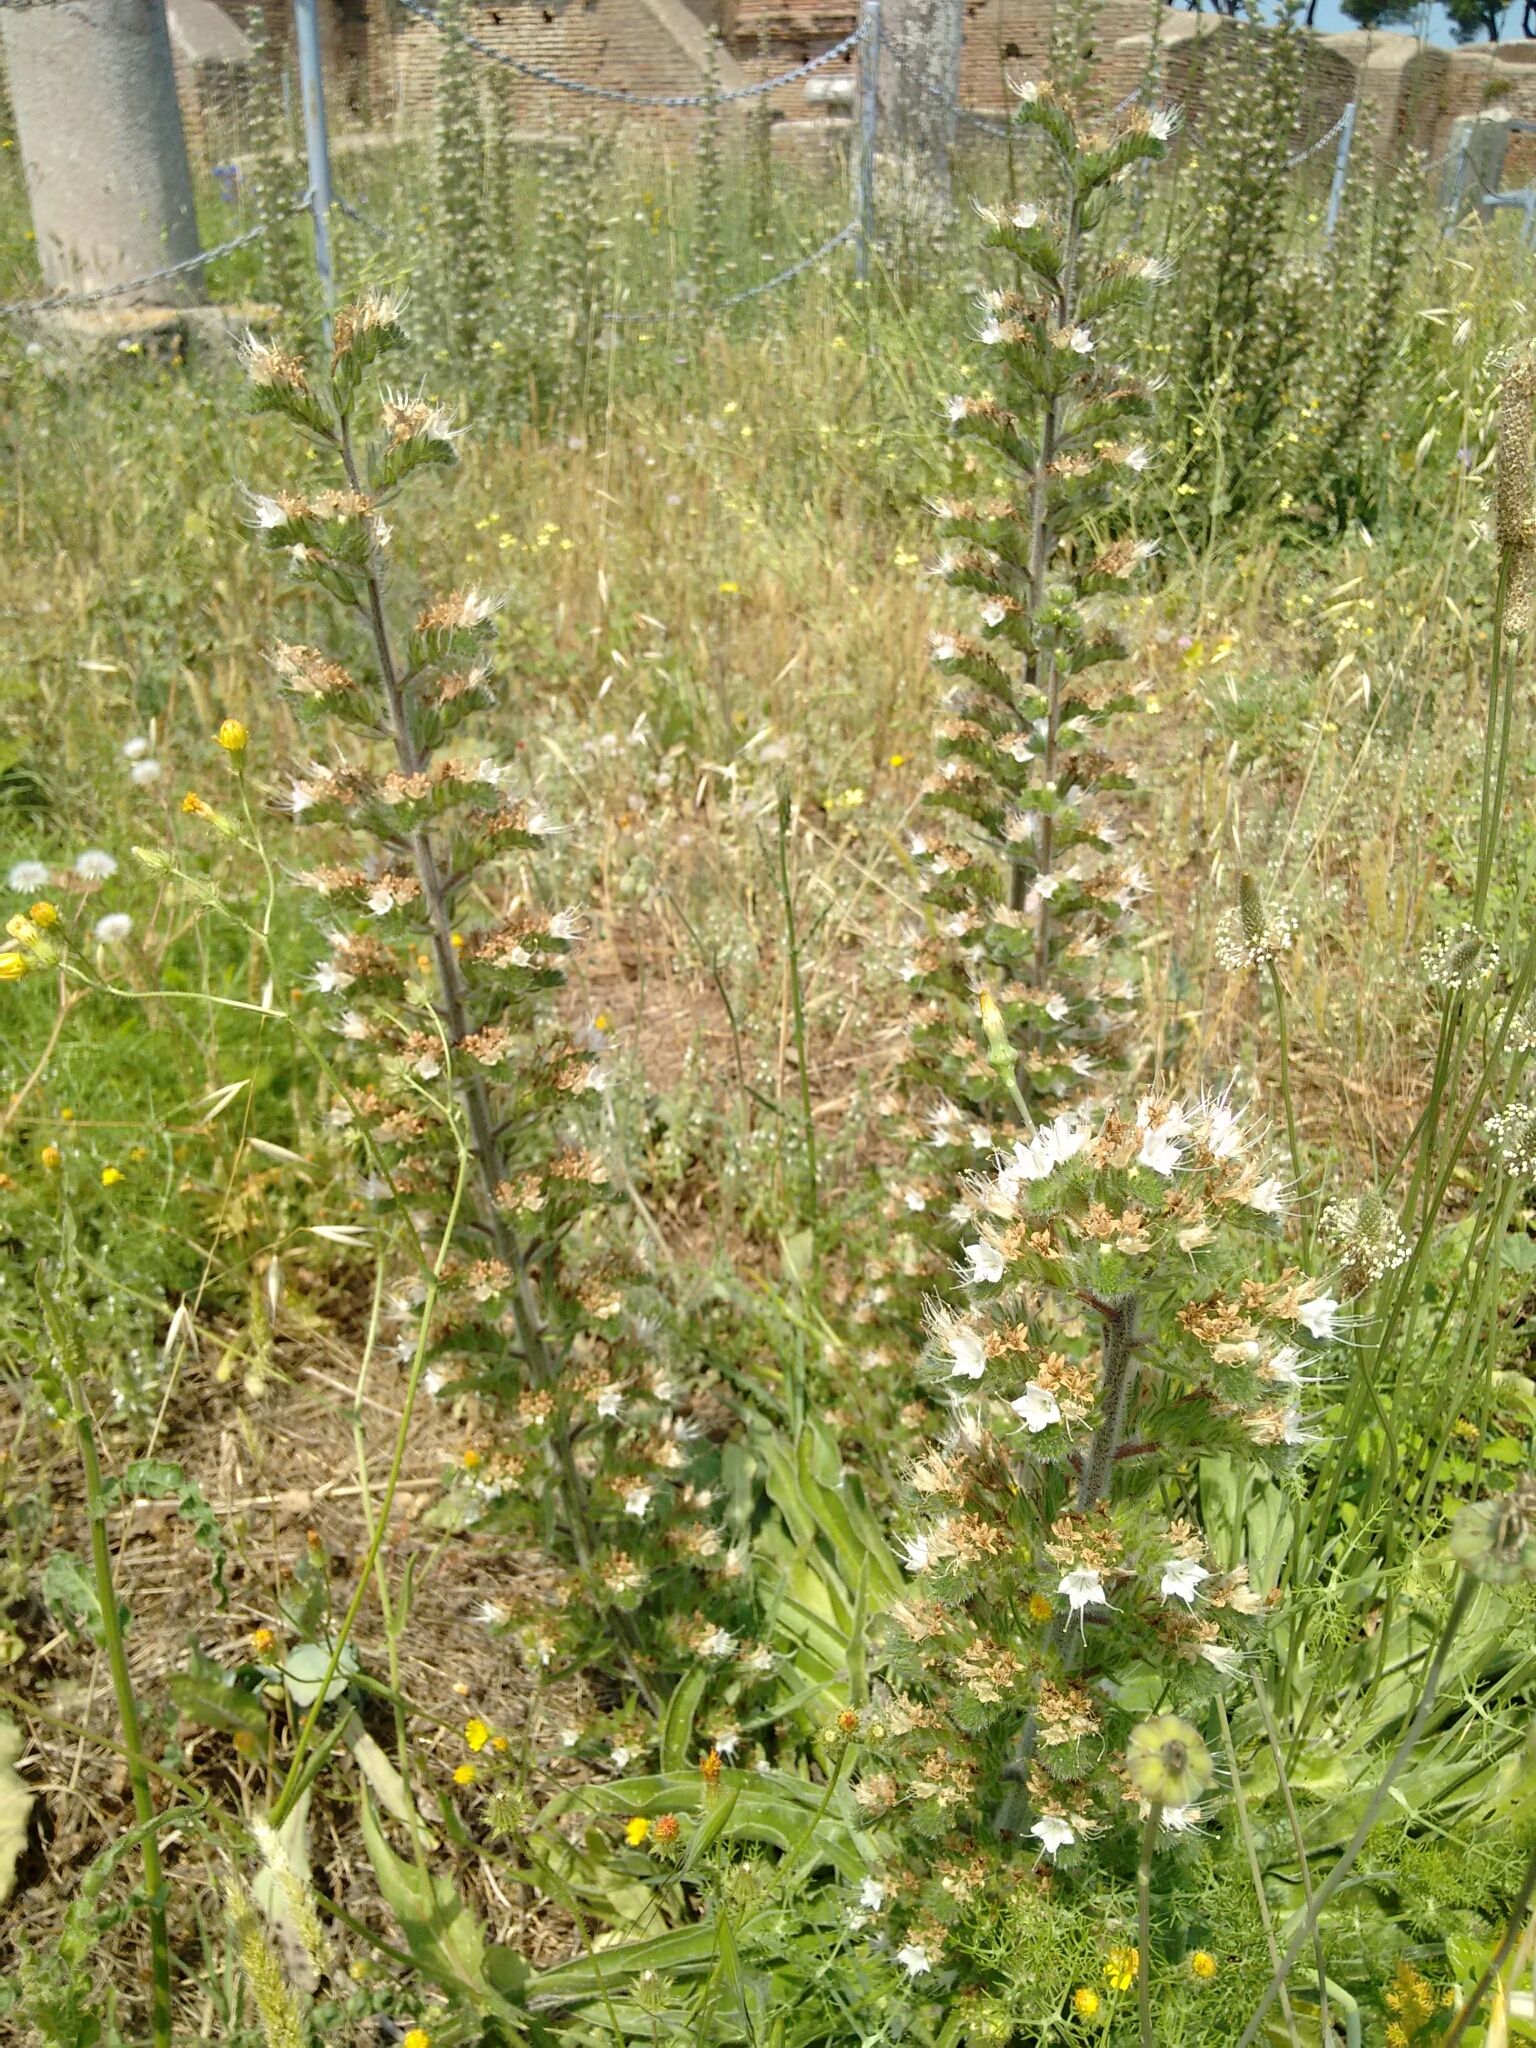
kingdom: Plantae
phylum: Tracheophyta
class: Magnoliopsida
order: Boraginales
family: Boraginaceae
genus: Echium
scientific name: Echium italicum
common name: Italian viper's bugloss
